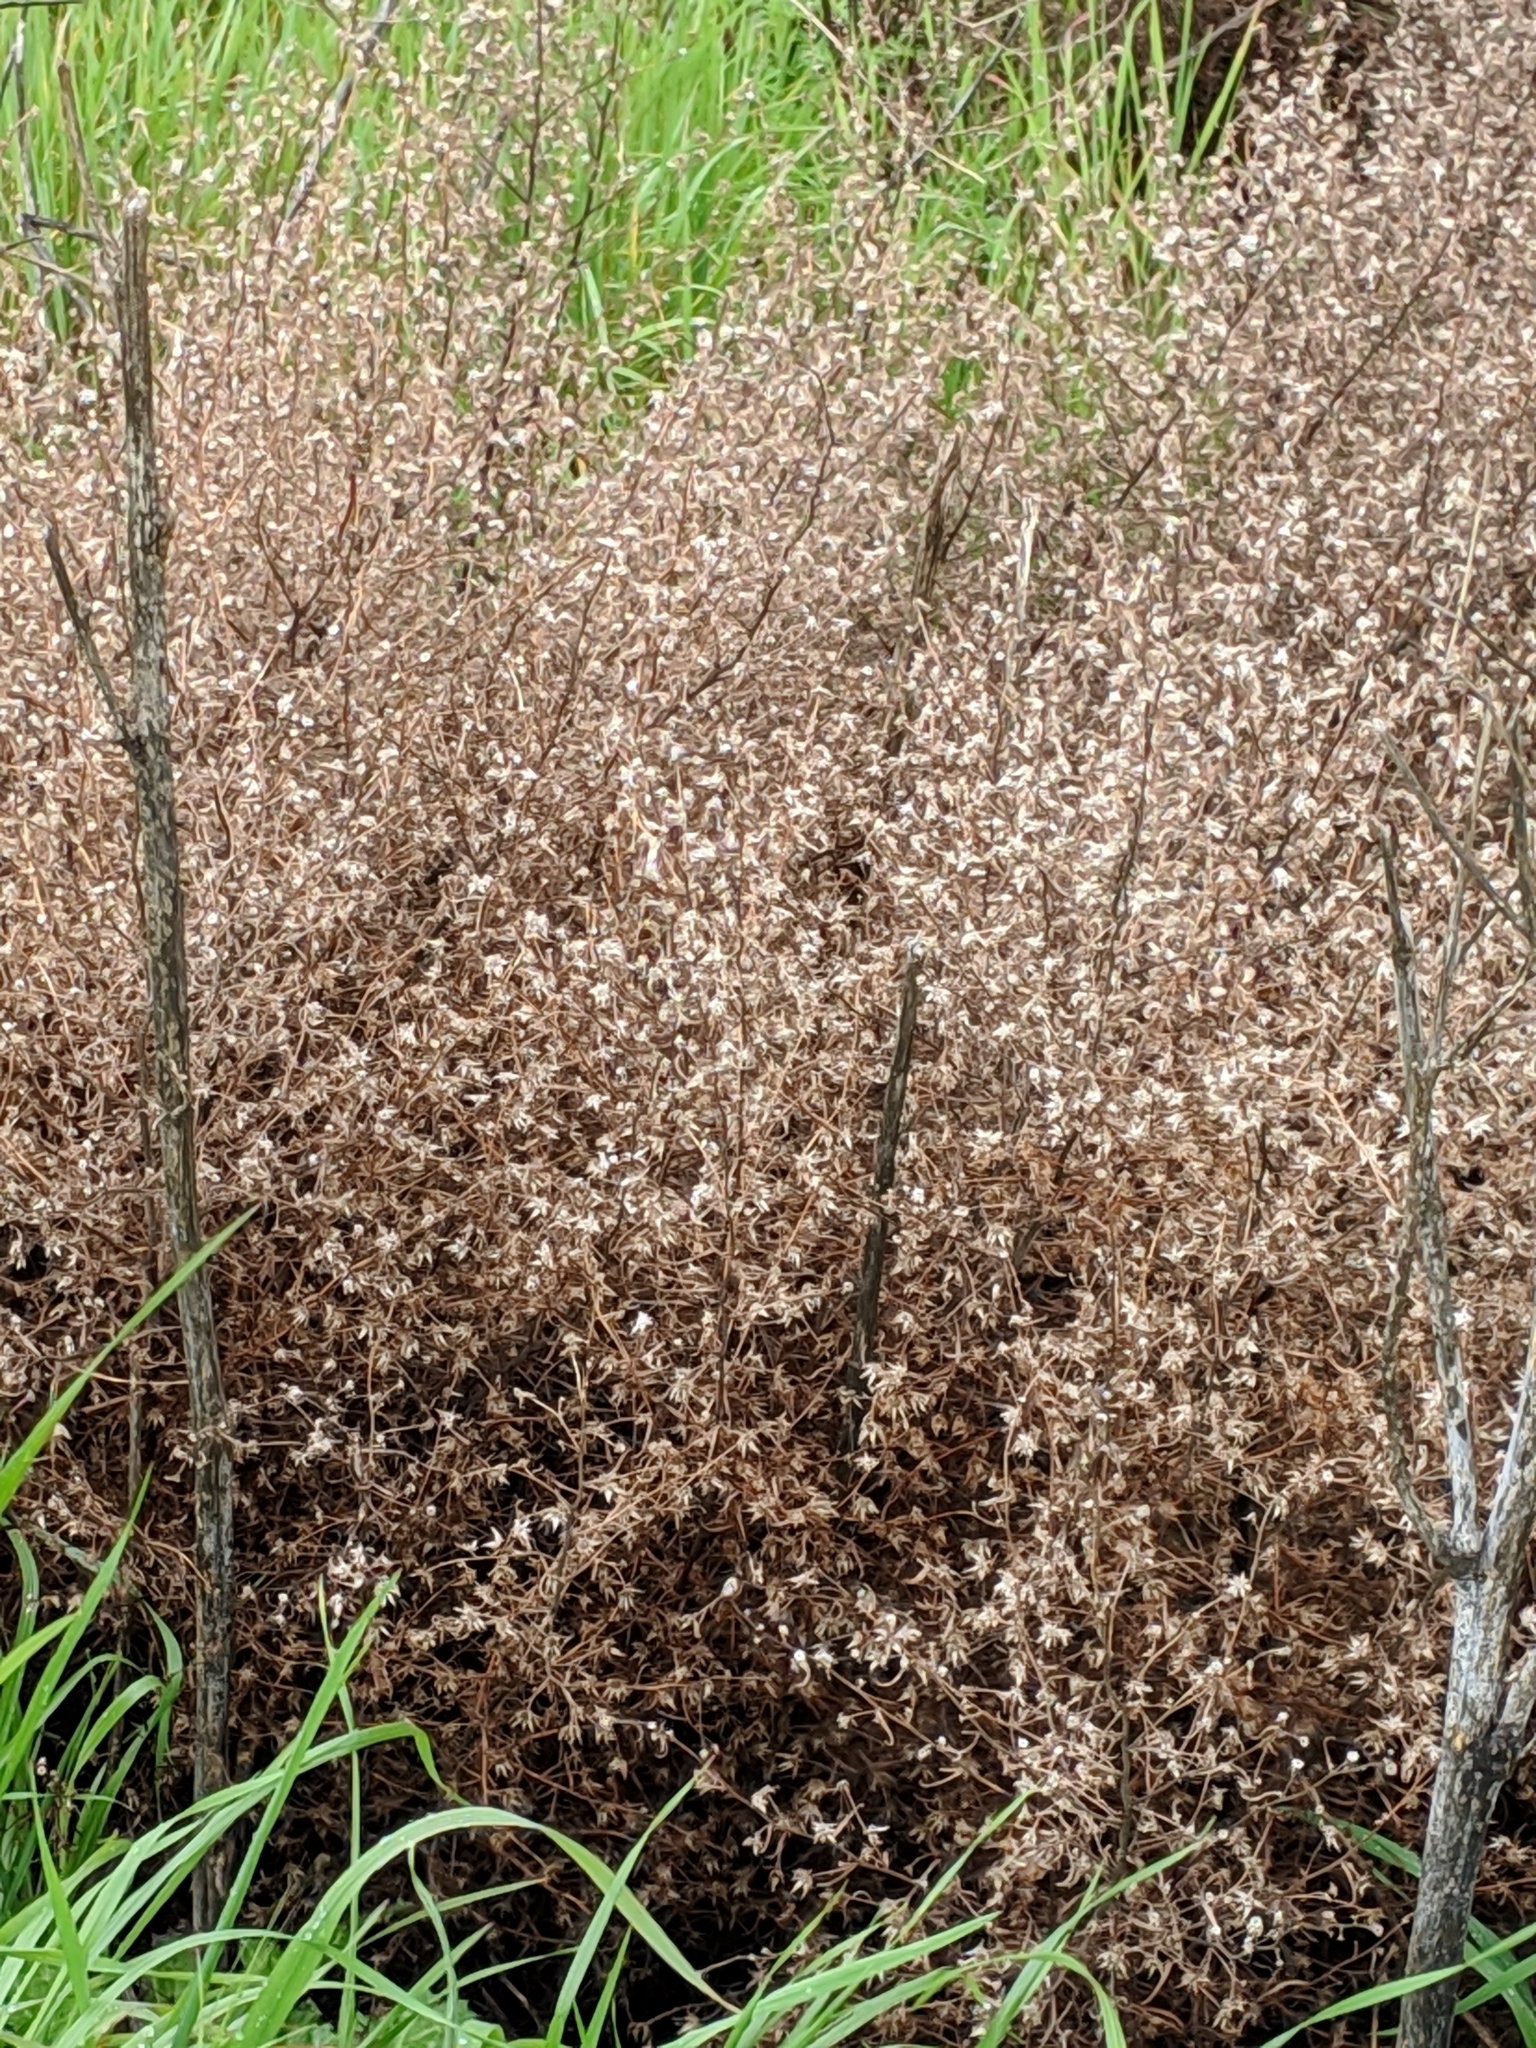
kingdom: Plantae
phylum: Tracheophyta
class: Magnoliopsida
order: Asterales
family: Asteraceae
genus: Dittrichia
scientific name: Dittrichia graveolens
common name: Stinking fleabane
